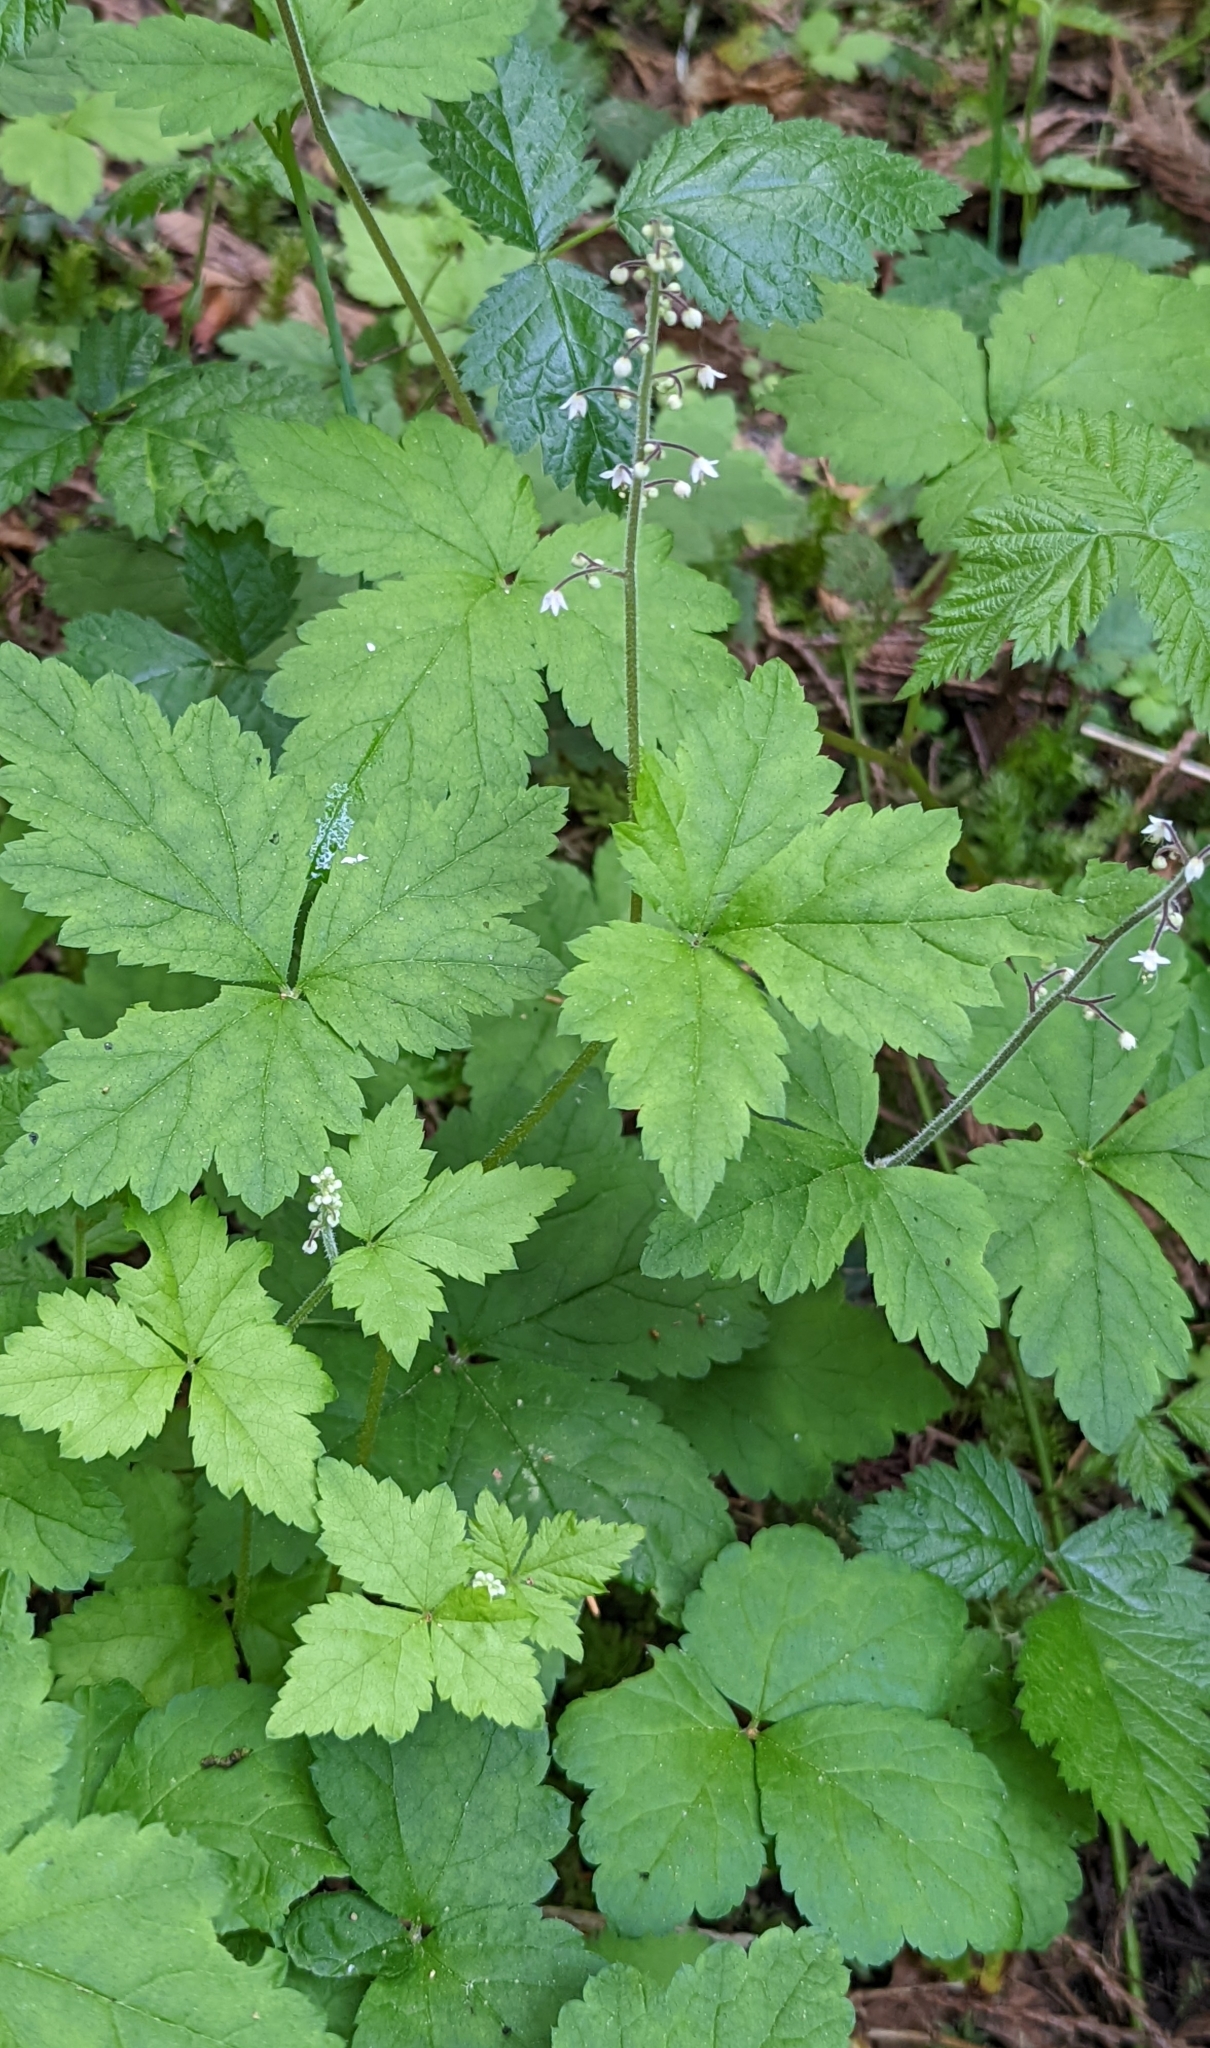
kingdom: Plantae
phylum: Tracheophyta
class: Magnoliopsida
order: Saxifragales
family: Saxifragaceae
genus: Tiarella
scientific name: Tiarella trifoliata
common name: Sugar-scoop
